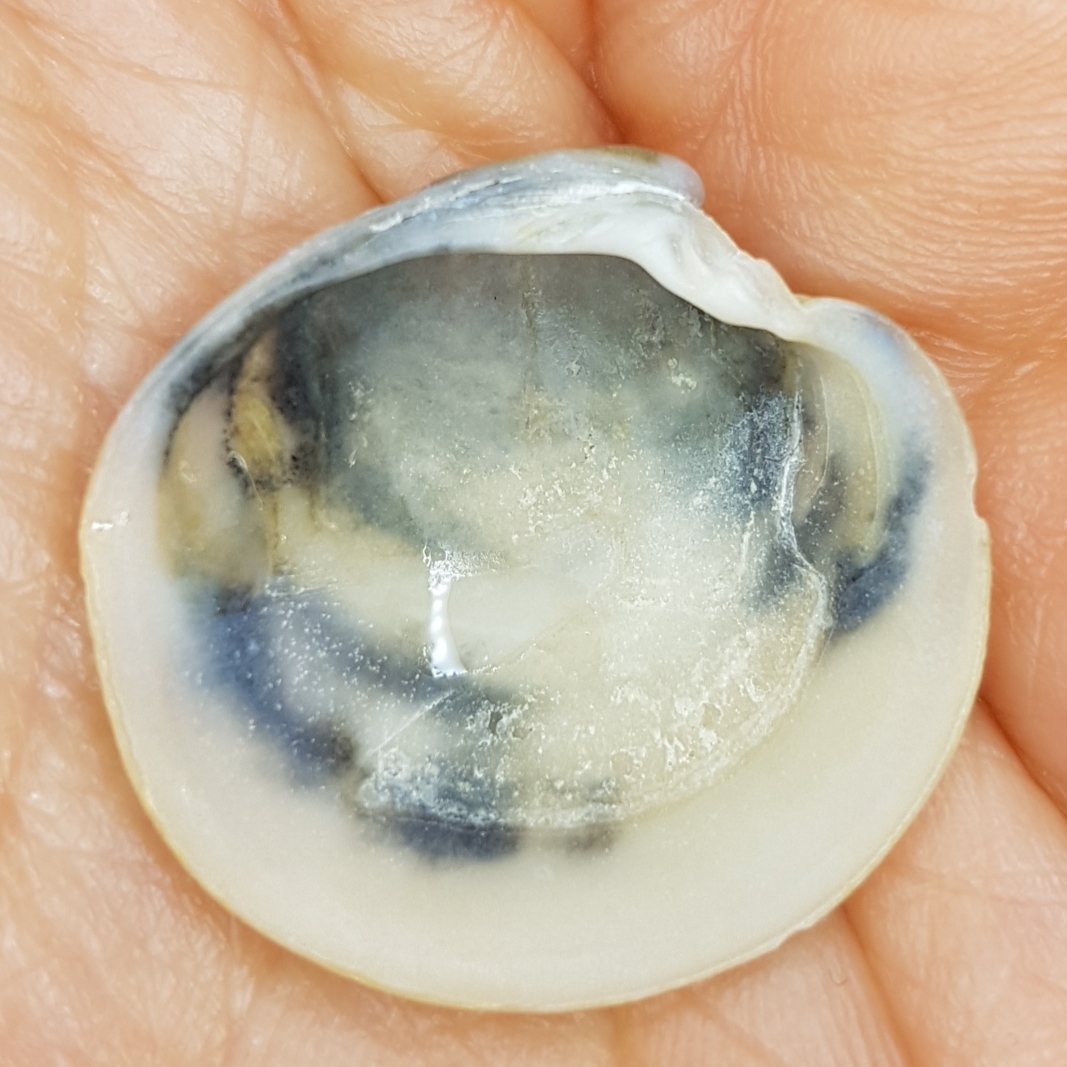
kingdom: Animalia
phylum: Mollusca
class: Bivalvia
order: Venerida
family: Veneridae
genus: Dosinia
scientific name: Dosinia exoleta
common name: Rayed artemis
